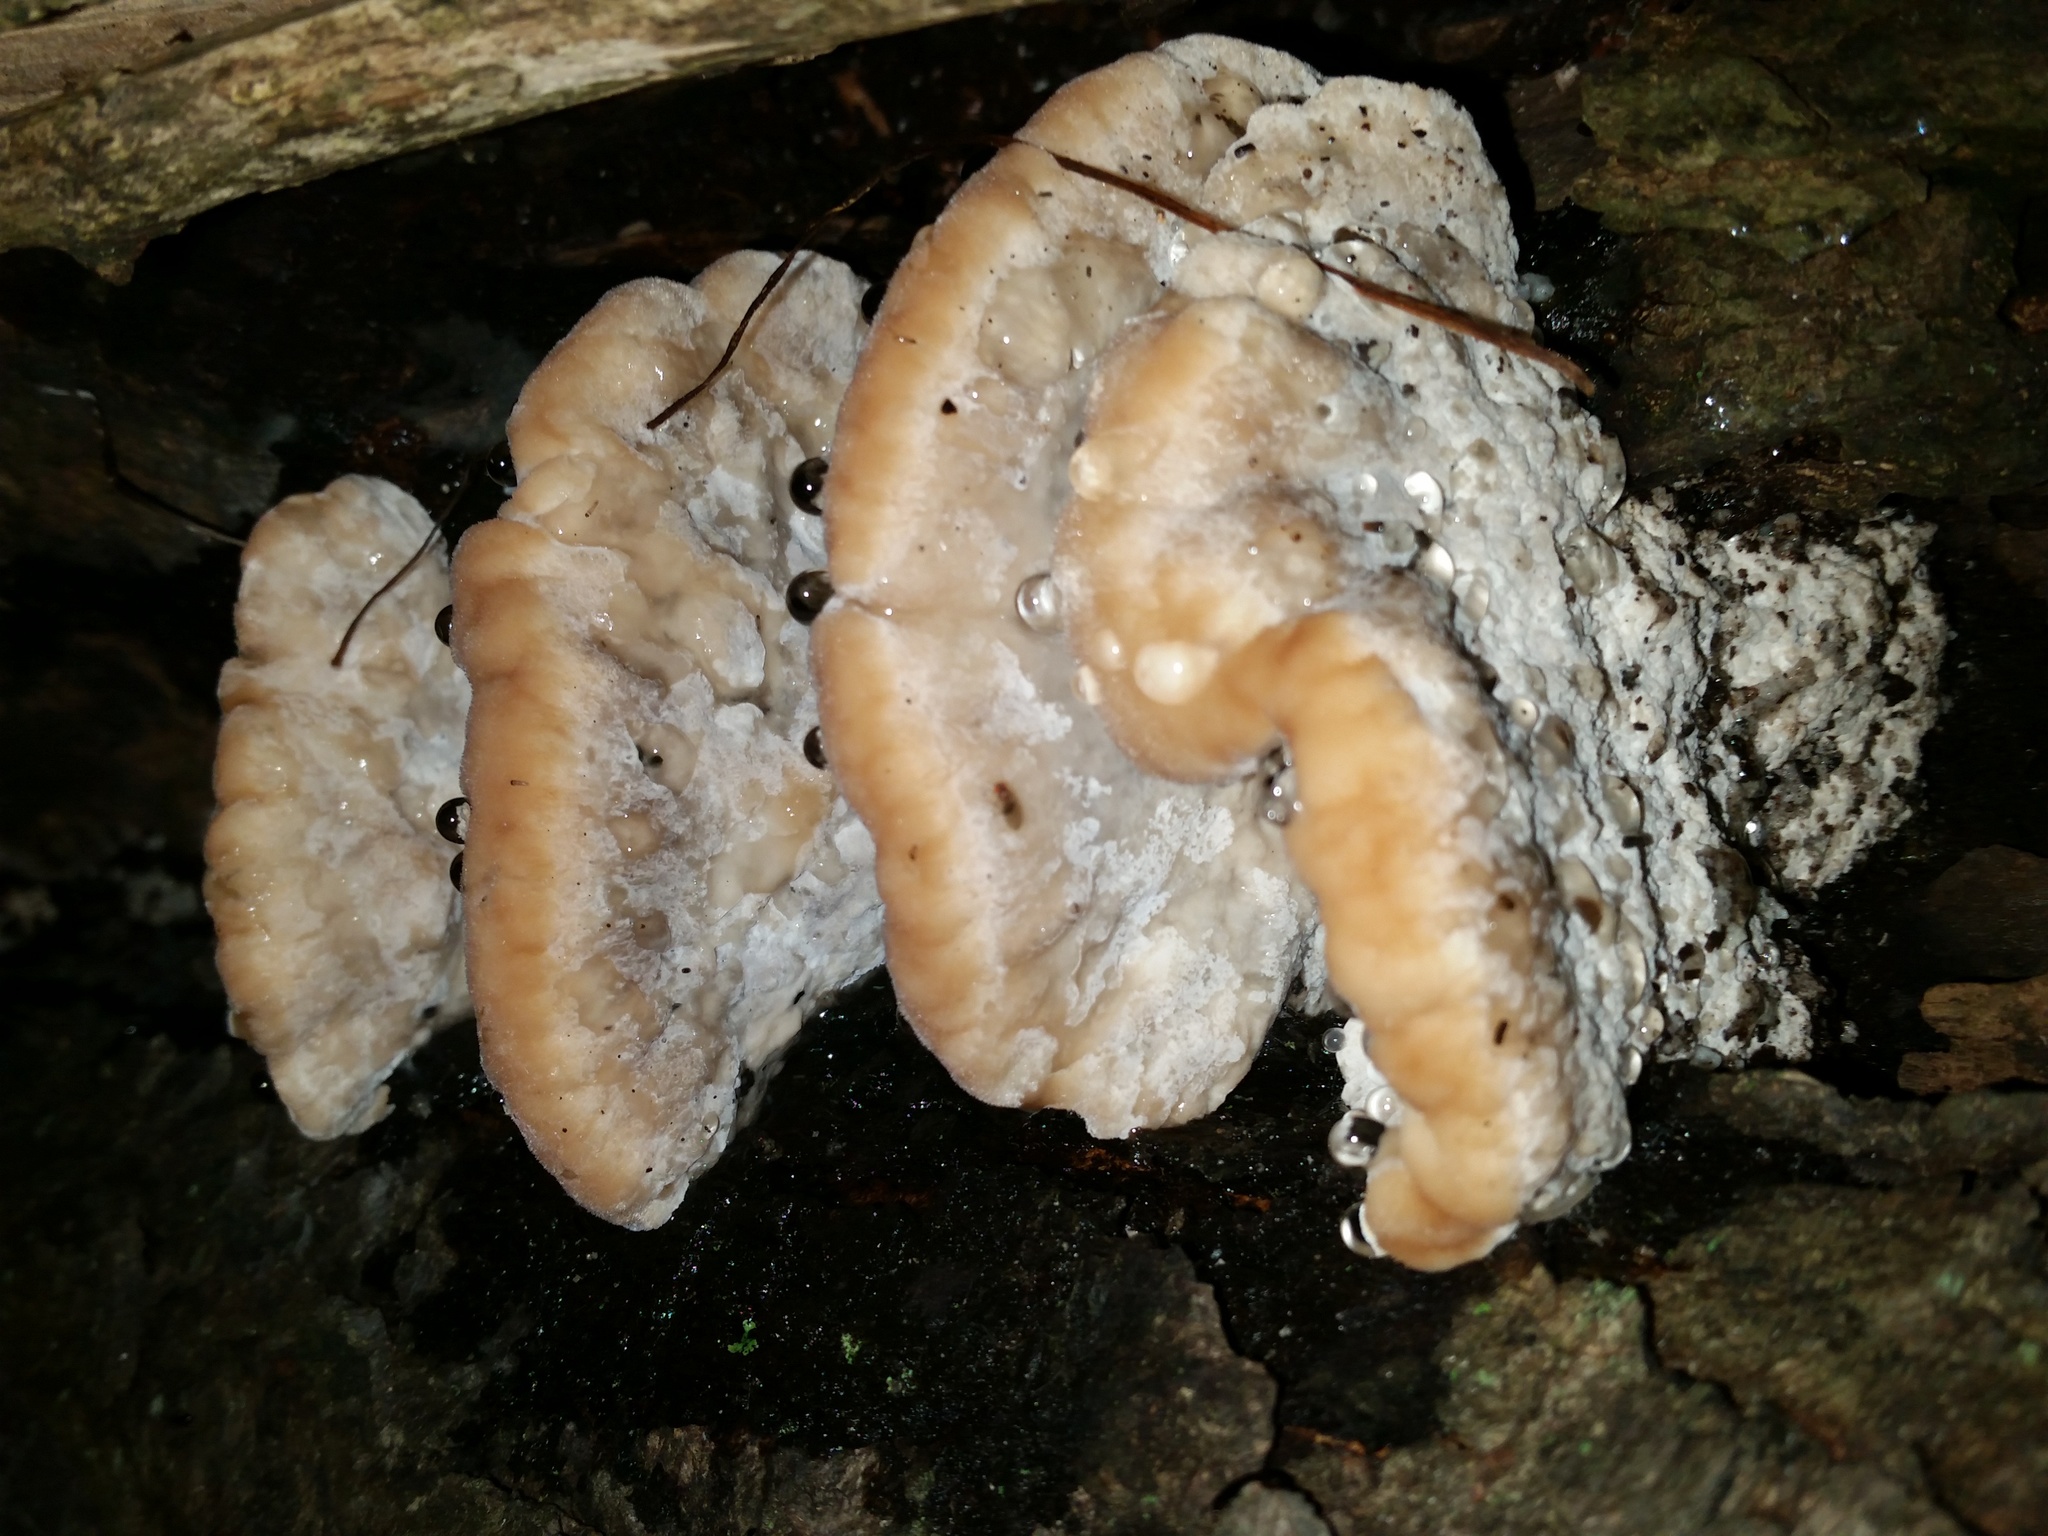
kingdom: Fungi
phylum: Basidiomycota
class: Agaricomycetes
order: Polyporales
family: Fomitopsidaceae
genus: Niveoporofomes
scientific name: Niveoporofomes spraguei
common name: Green cheese polypore
